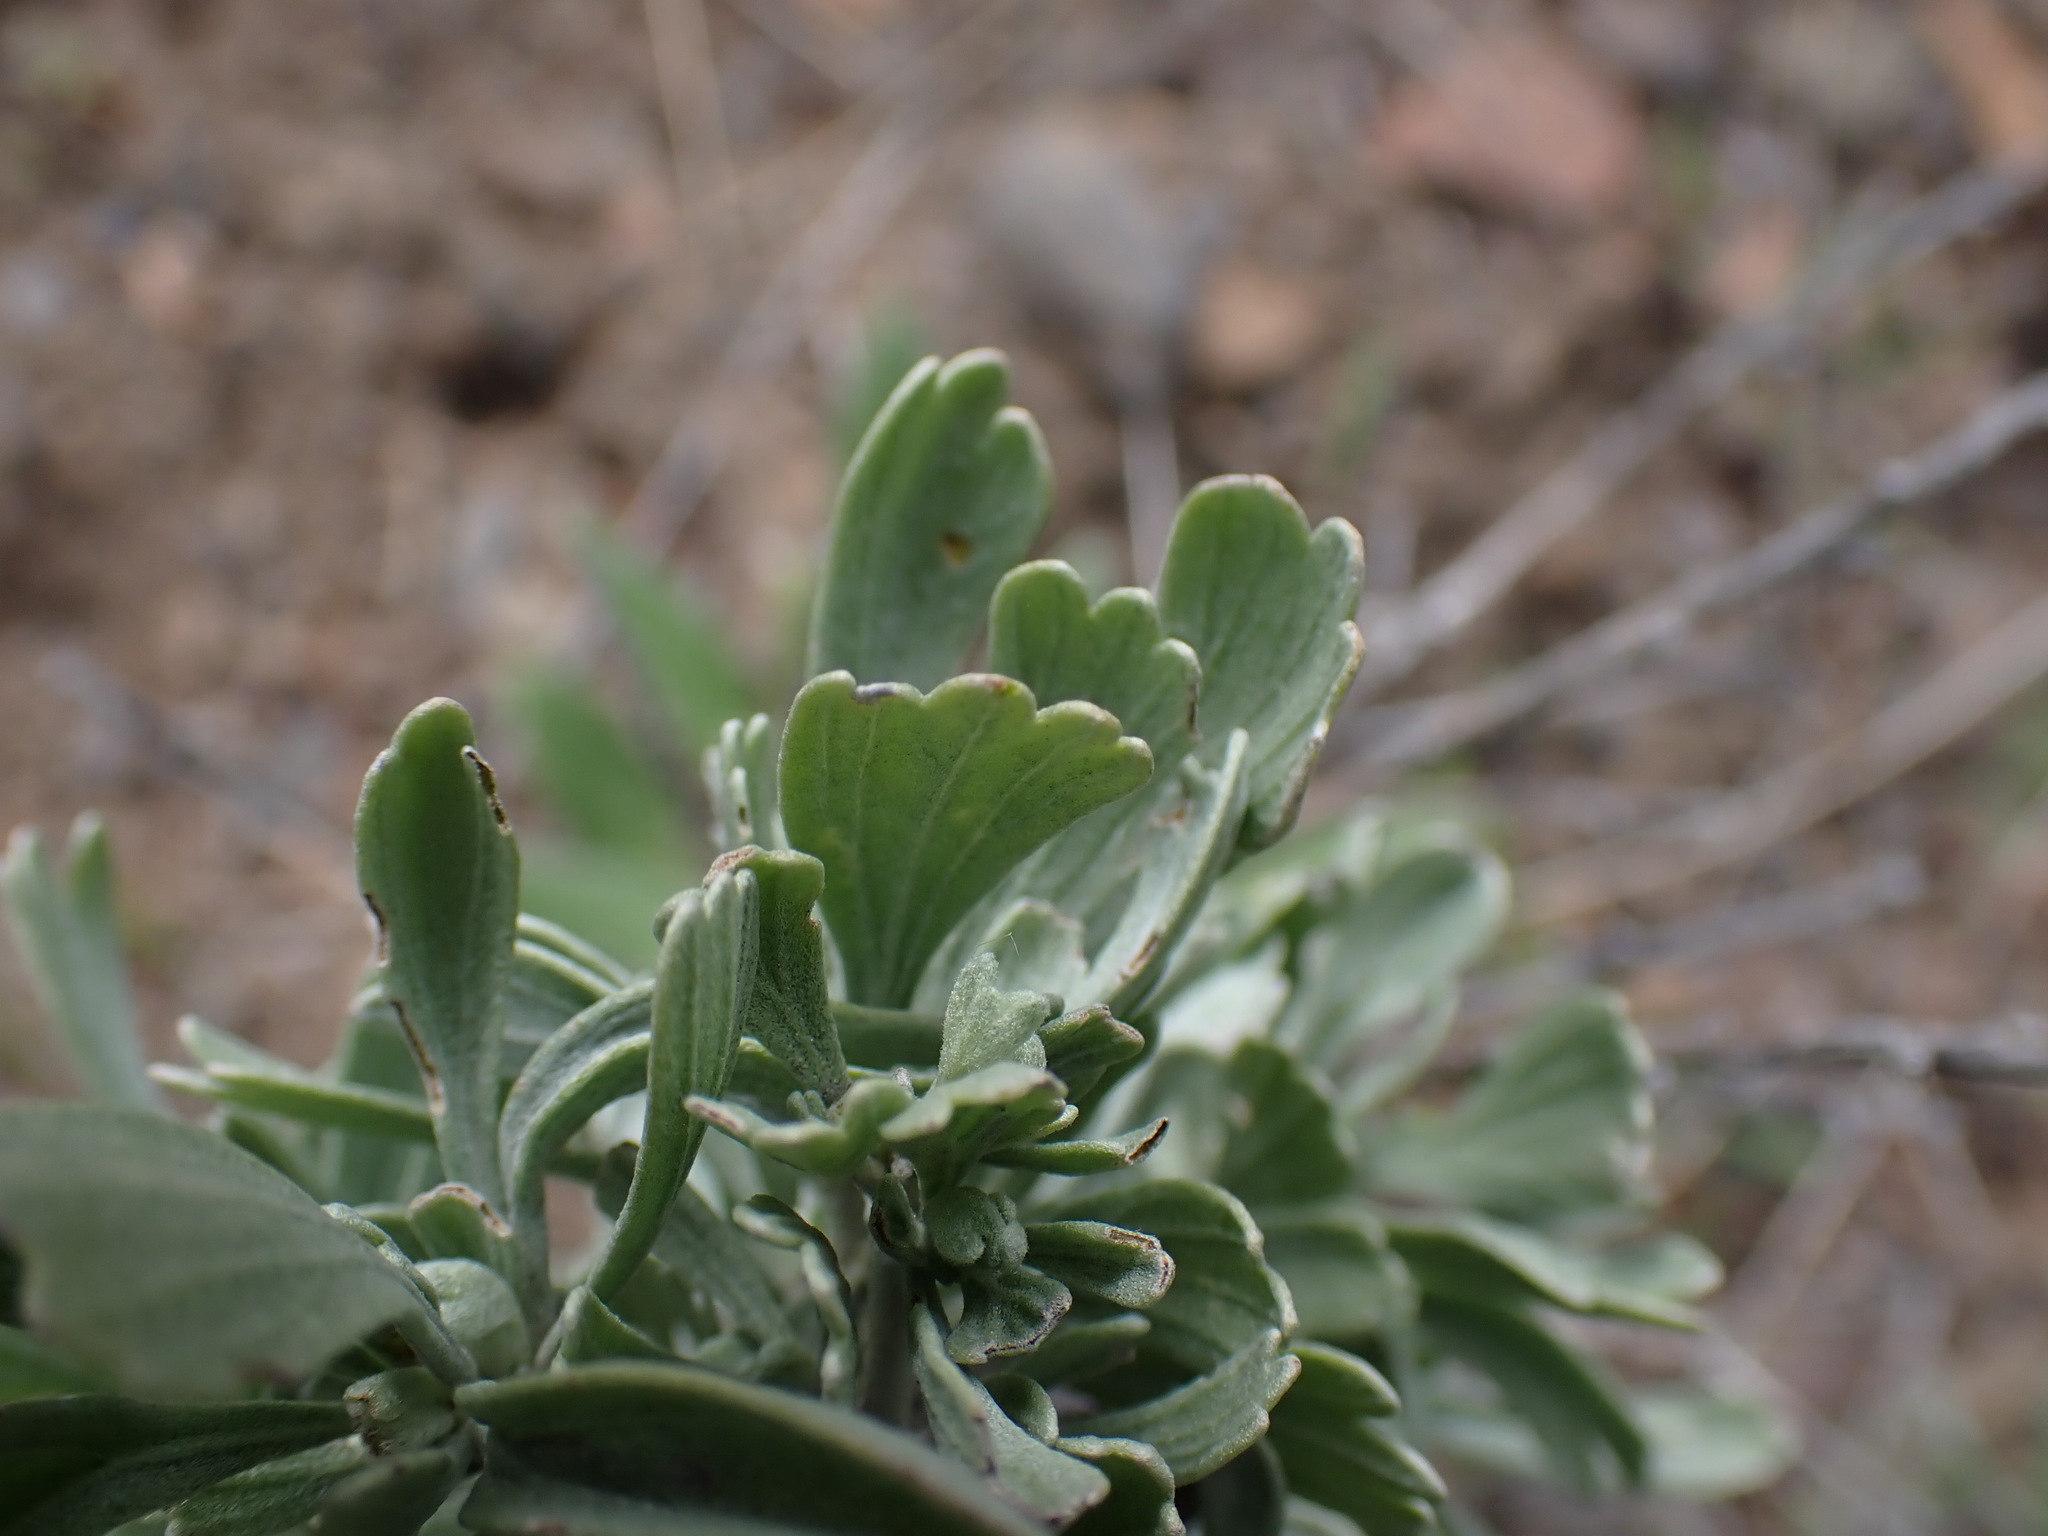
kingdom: Plantae
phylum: Tracheophyta
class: Magnoliopsida
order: Asterales
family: Asteraceae
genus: Artemisia
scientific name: Artemisia tridentata
